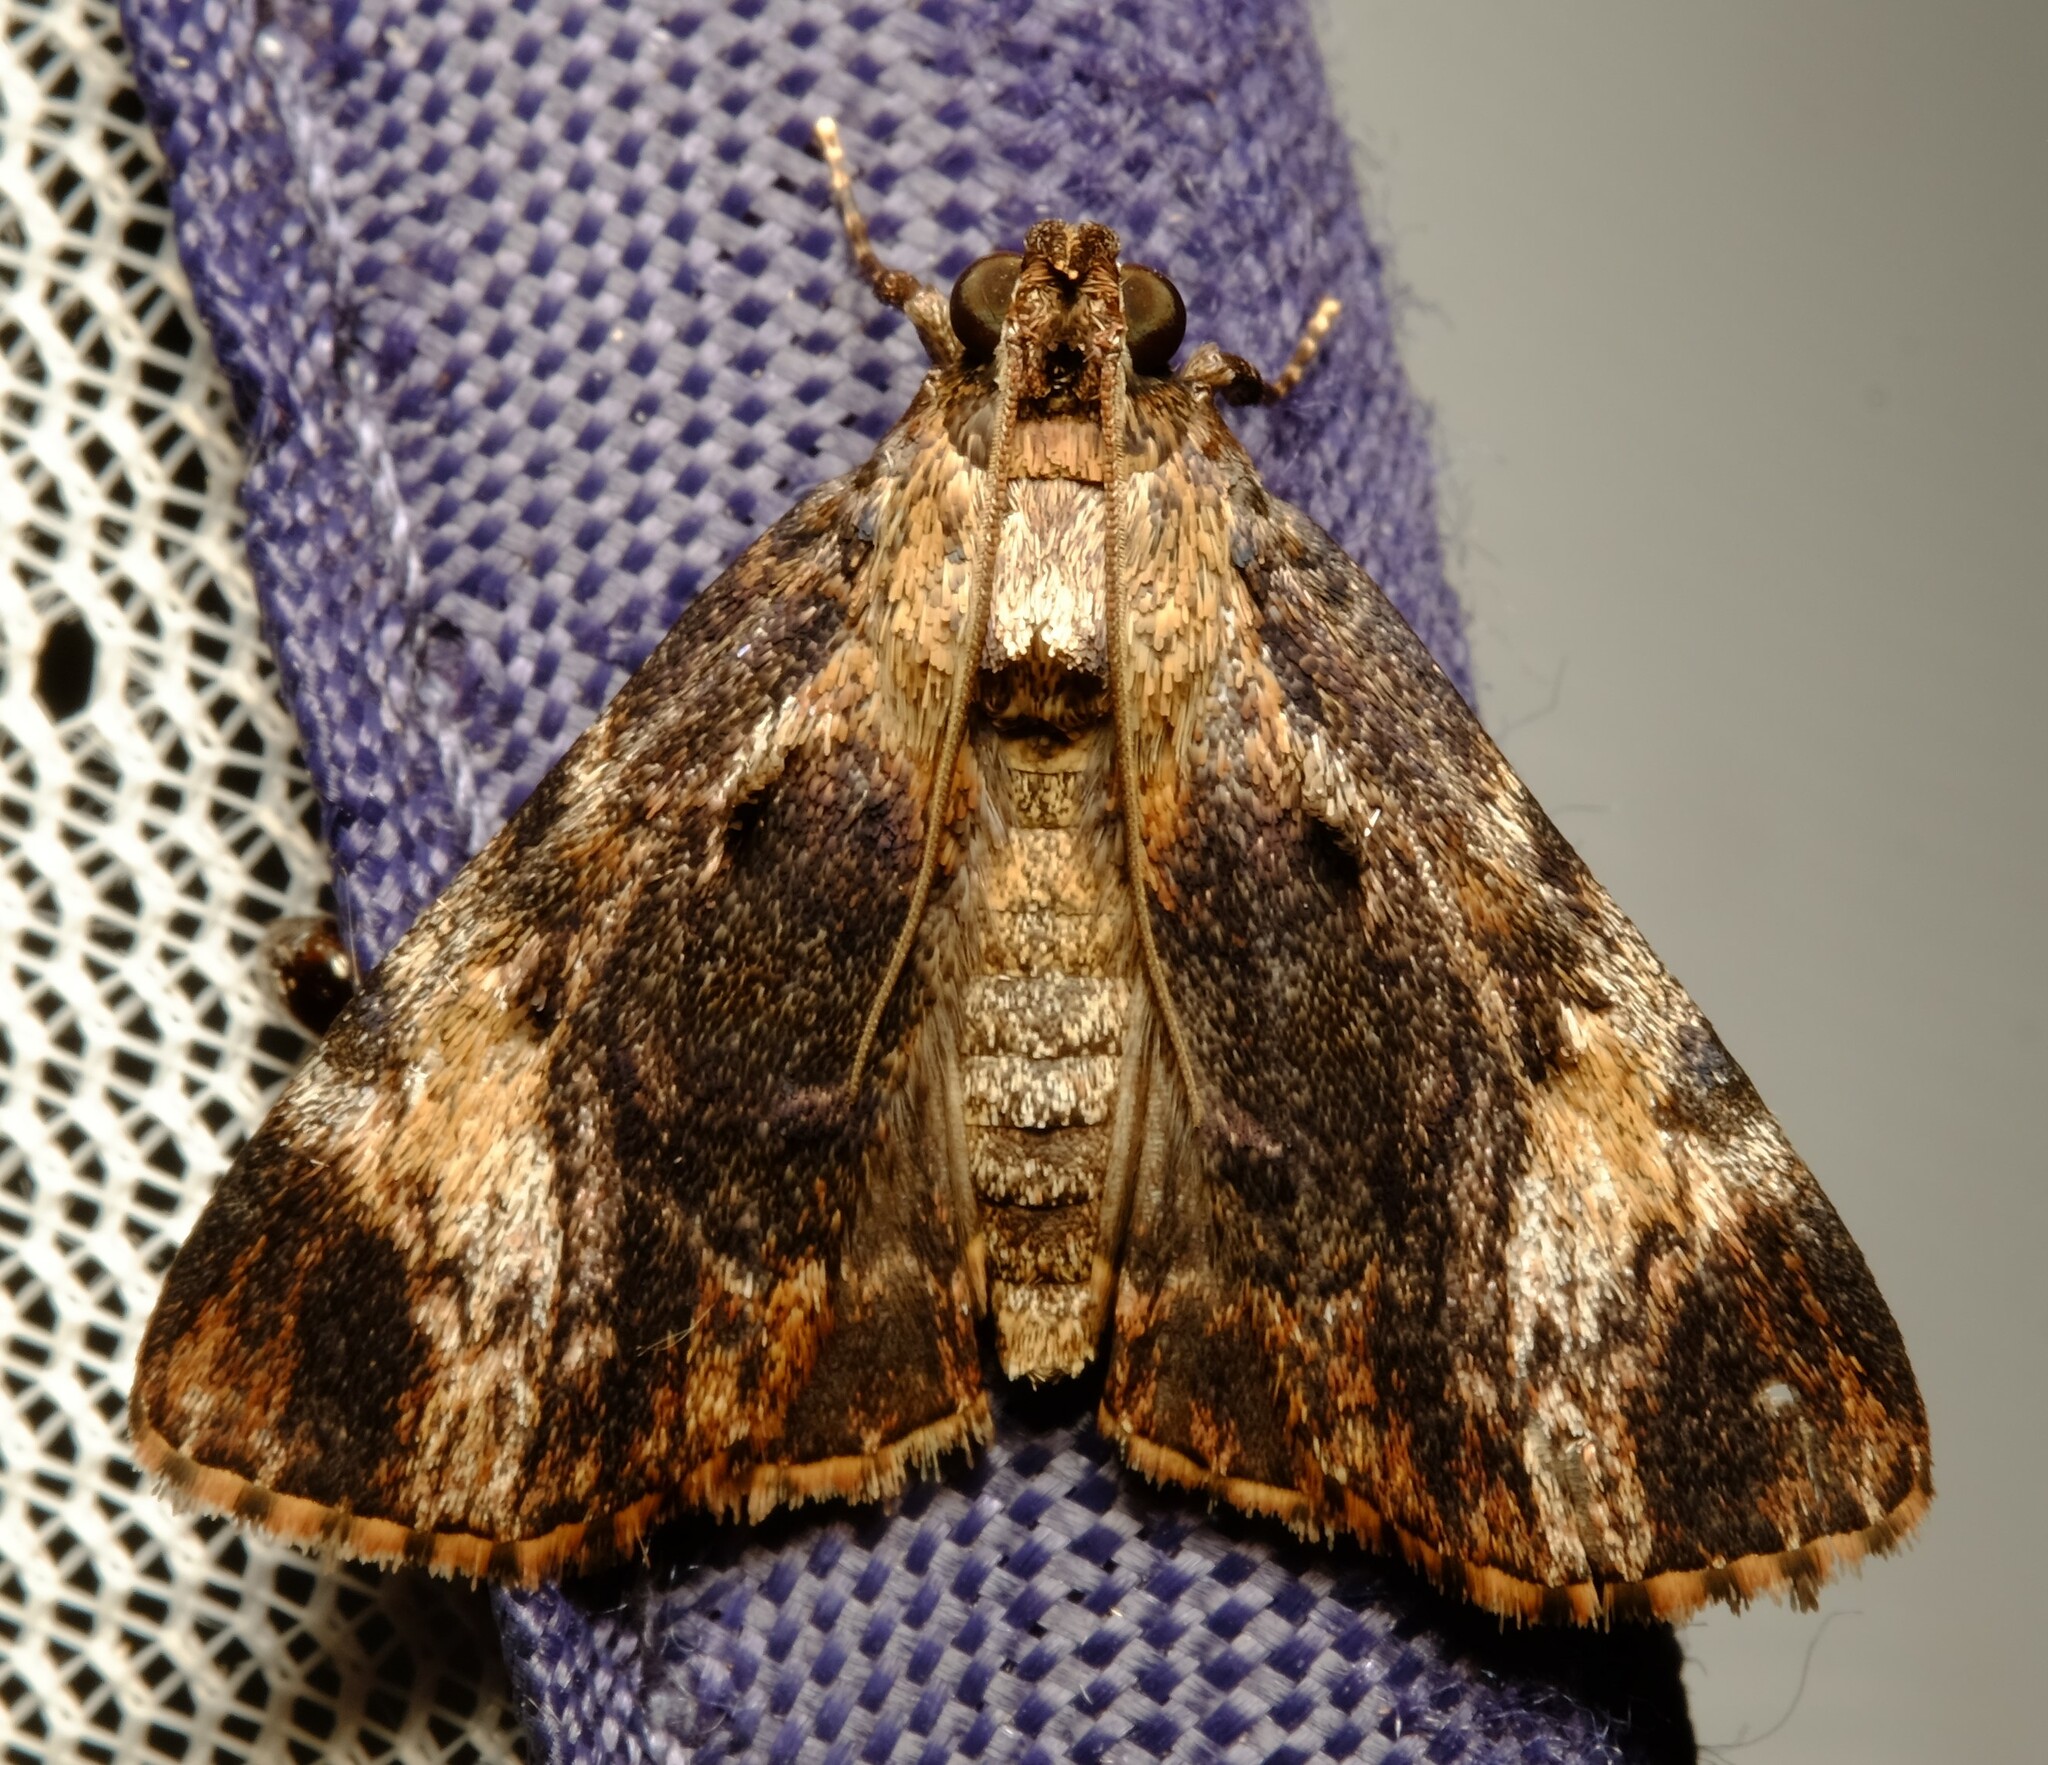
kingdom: Animalia
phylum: Arthropoda
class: Insecta
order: Lepidoptera
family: Pyralidae
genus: Salma
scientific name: Salma cholica
